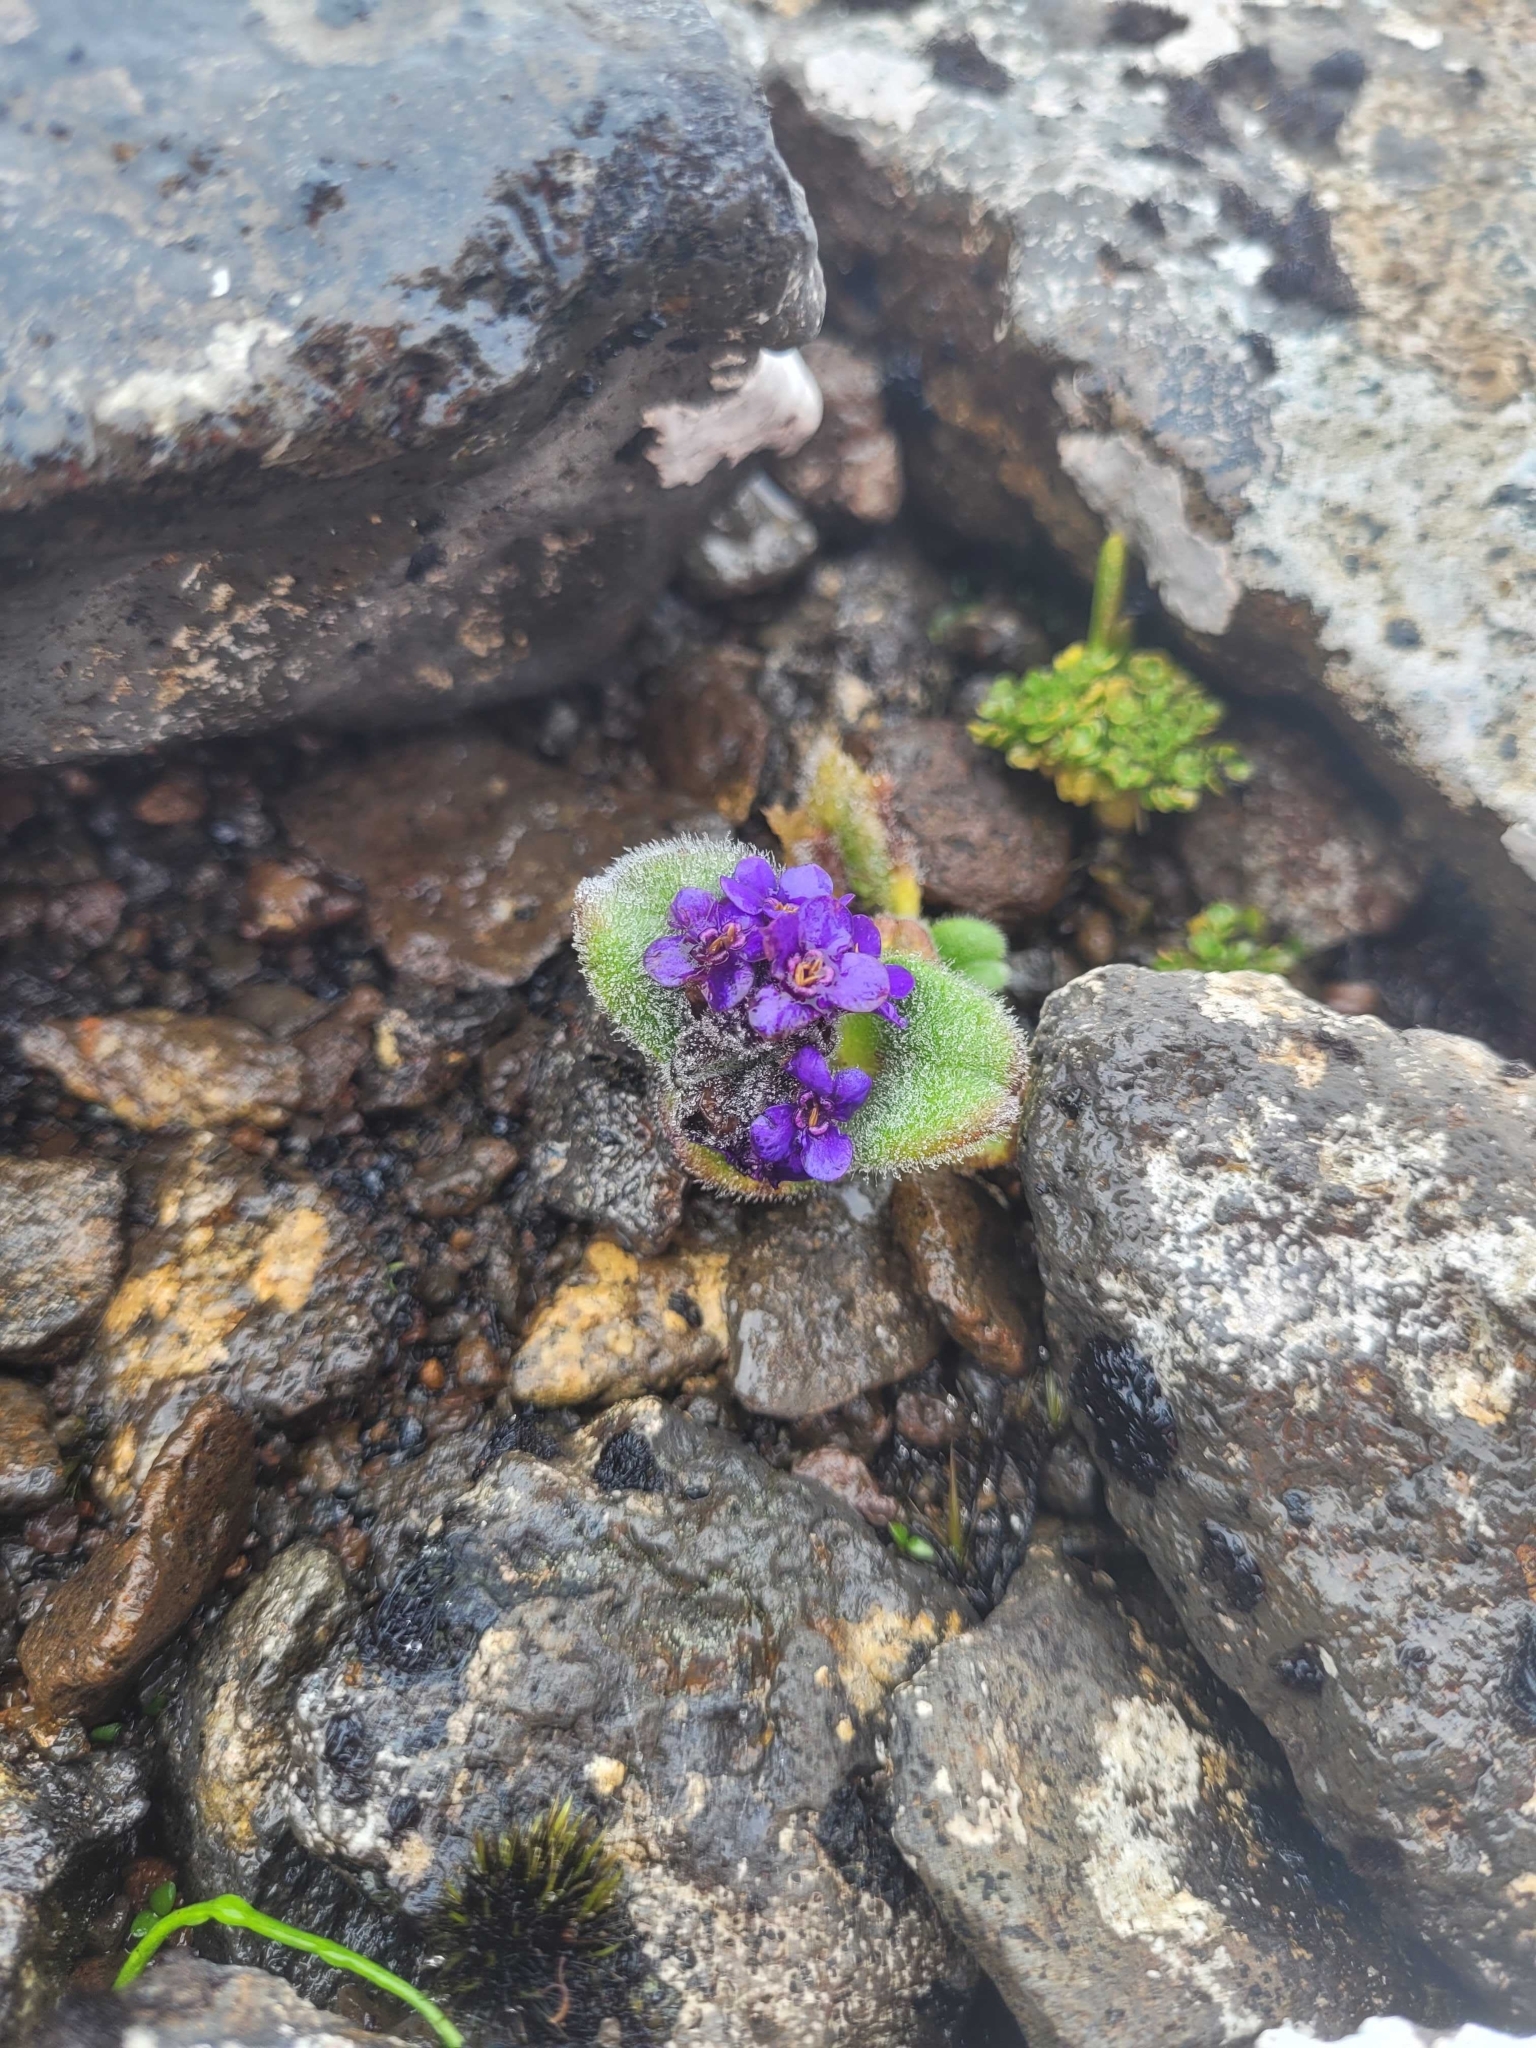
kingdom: Plantae
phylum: Tracheophyta
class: Magnoliopsida
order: Boraginales
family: Boraginaceae
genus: Myosotis
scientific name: Myosotis capitata
